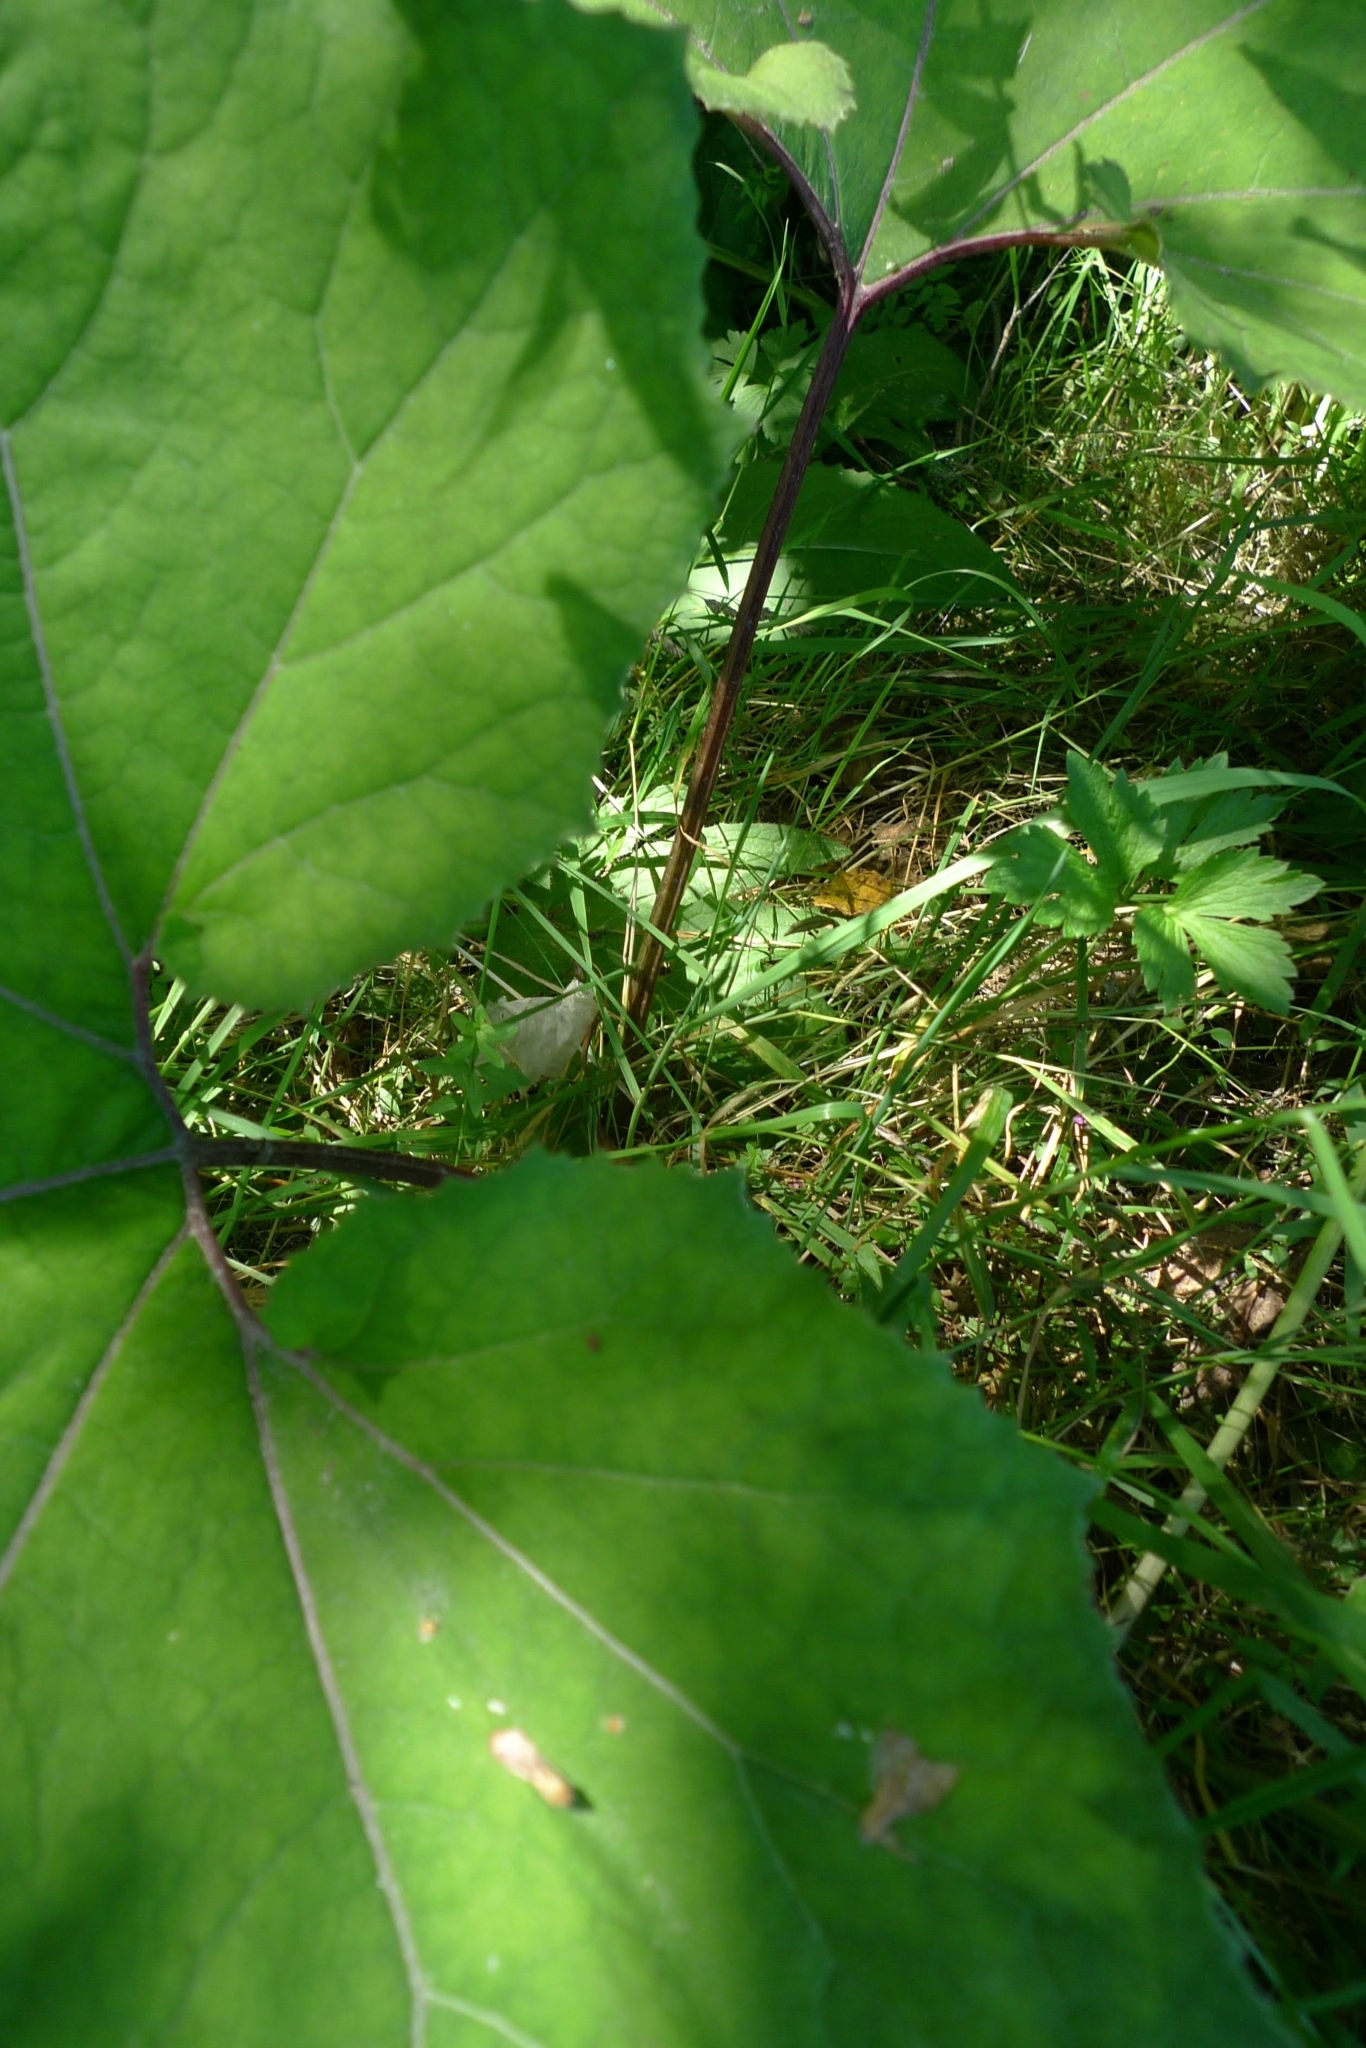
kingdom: Plantae
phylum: Tracheophyta
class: Magnoliopsida
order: Asterales
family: Asteraceae
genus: Tussilago
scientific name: Tussilago farfara
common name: Coltsfoot
